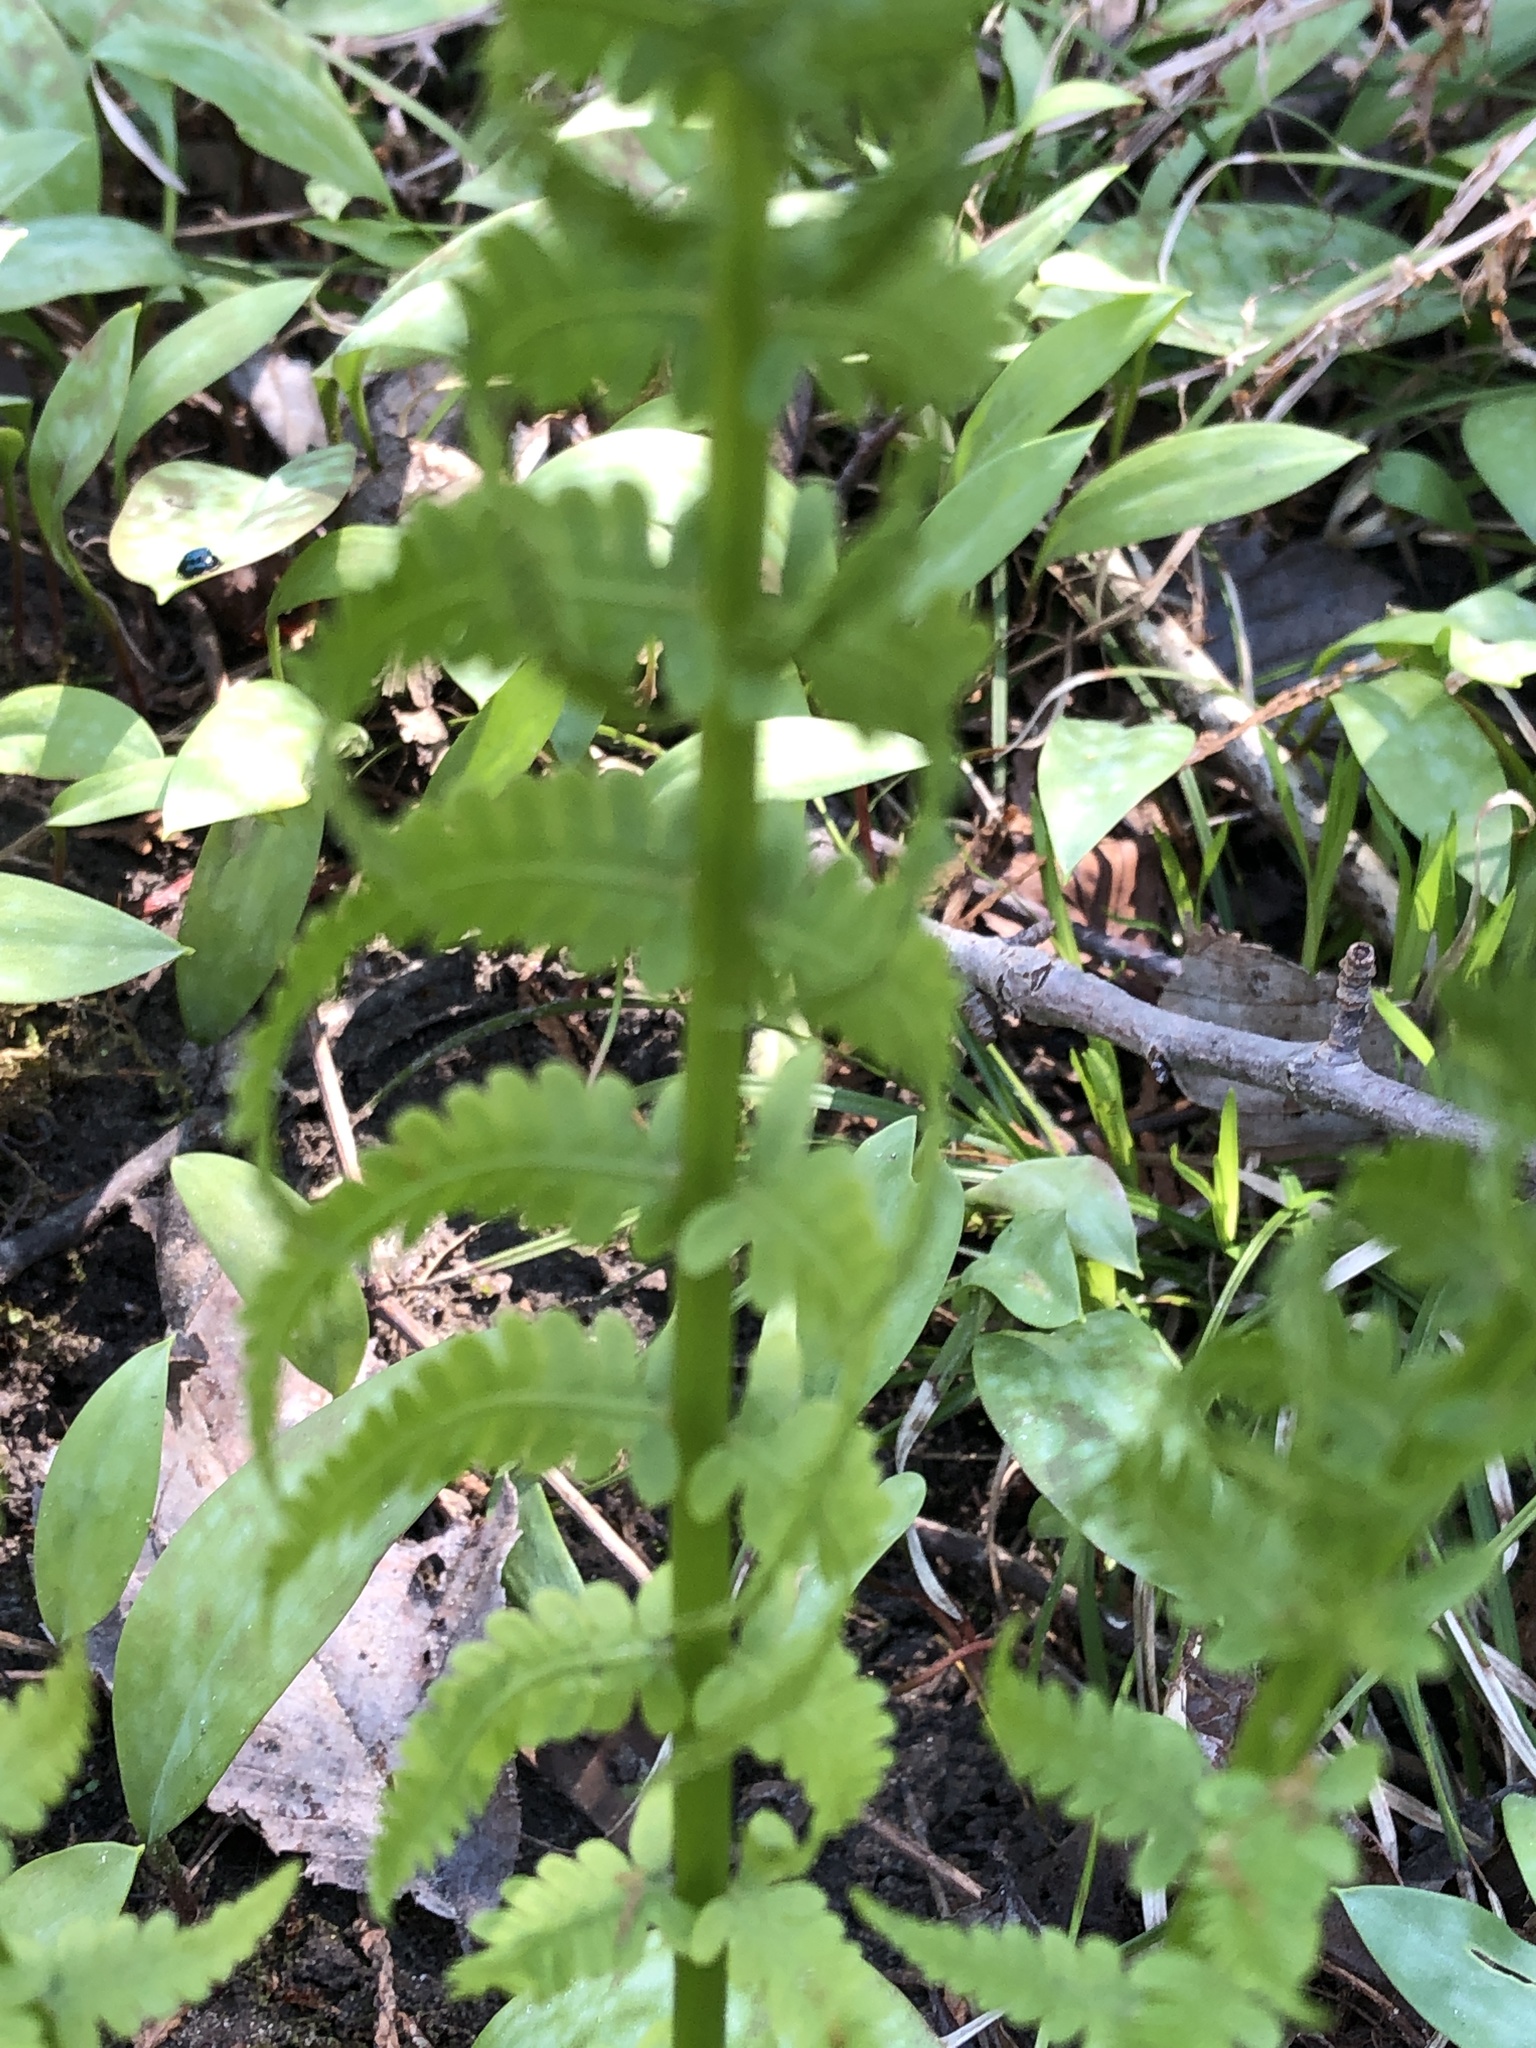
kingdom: Plantae
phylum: Tracheophyta
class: Polypodiopsida
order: Polypodiales
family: Onocleaceae
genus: Matteuccia
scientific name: Matteuccia struthiopteris
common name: Ostrich fern
